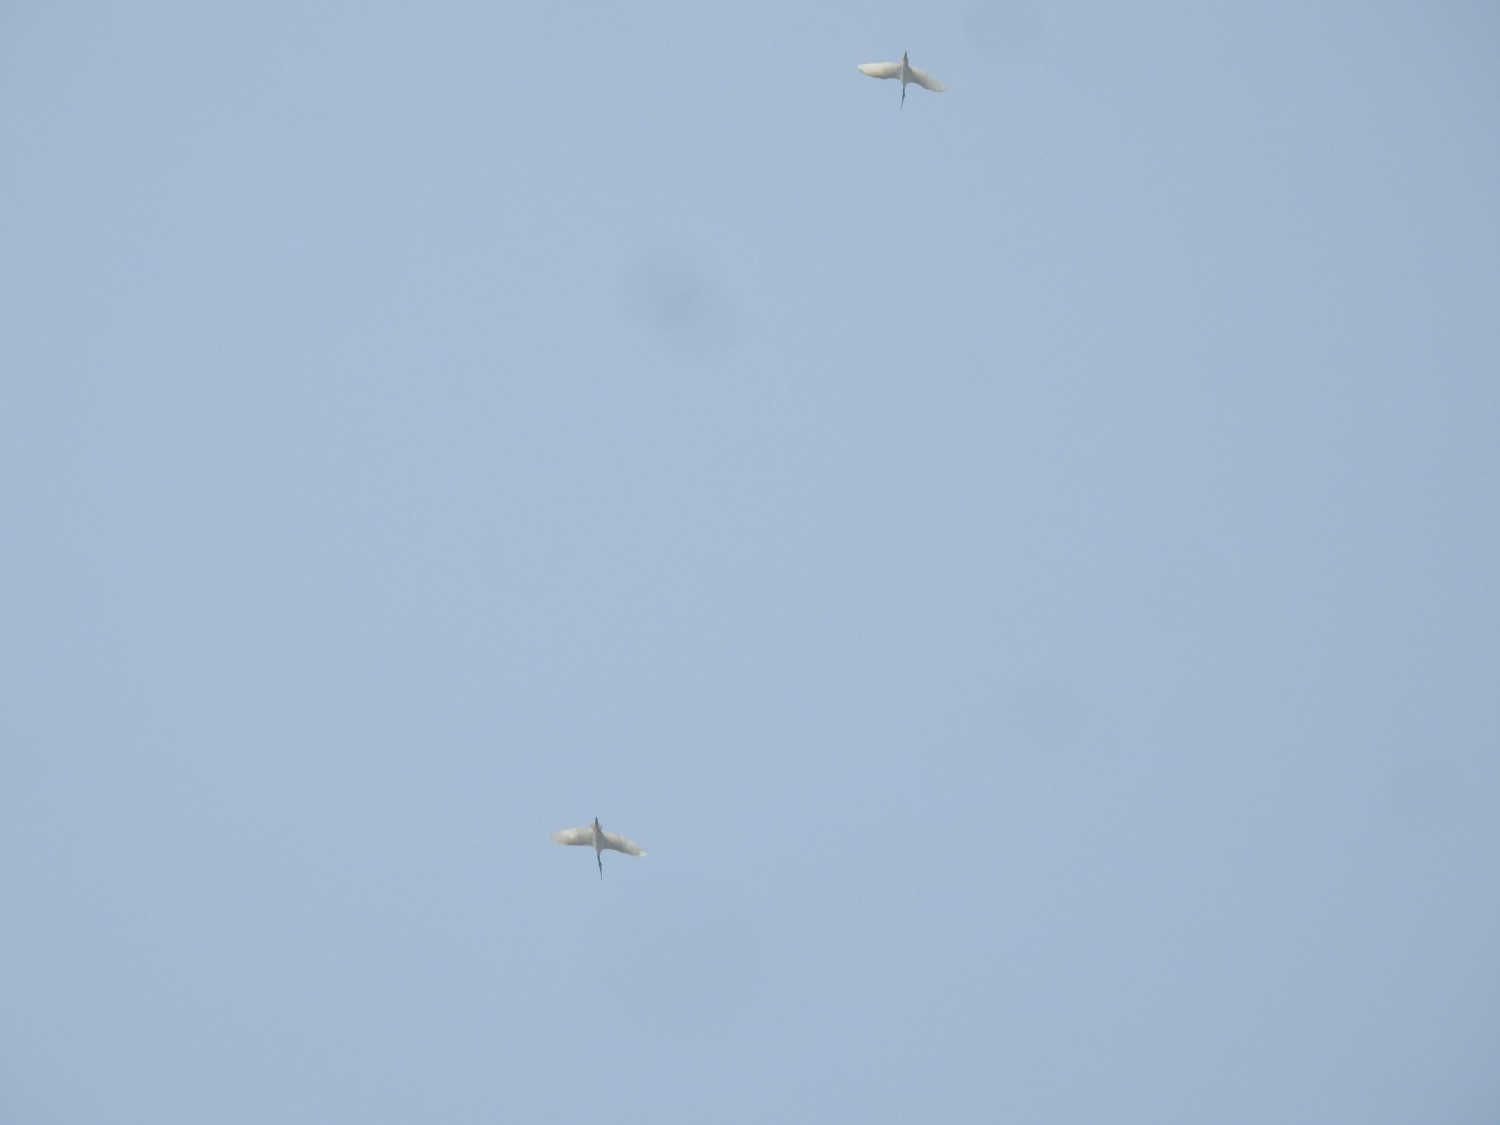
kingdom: Animalia
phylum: Chordata
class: Aves
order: Pelecaniformes
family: Threskiornithidae
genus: Threskiornis
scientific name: Threskiornis melanocephalus
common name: Black-headed ibis
